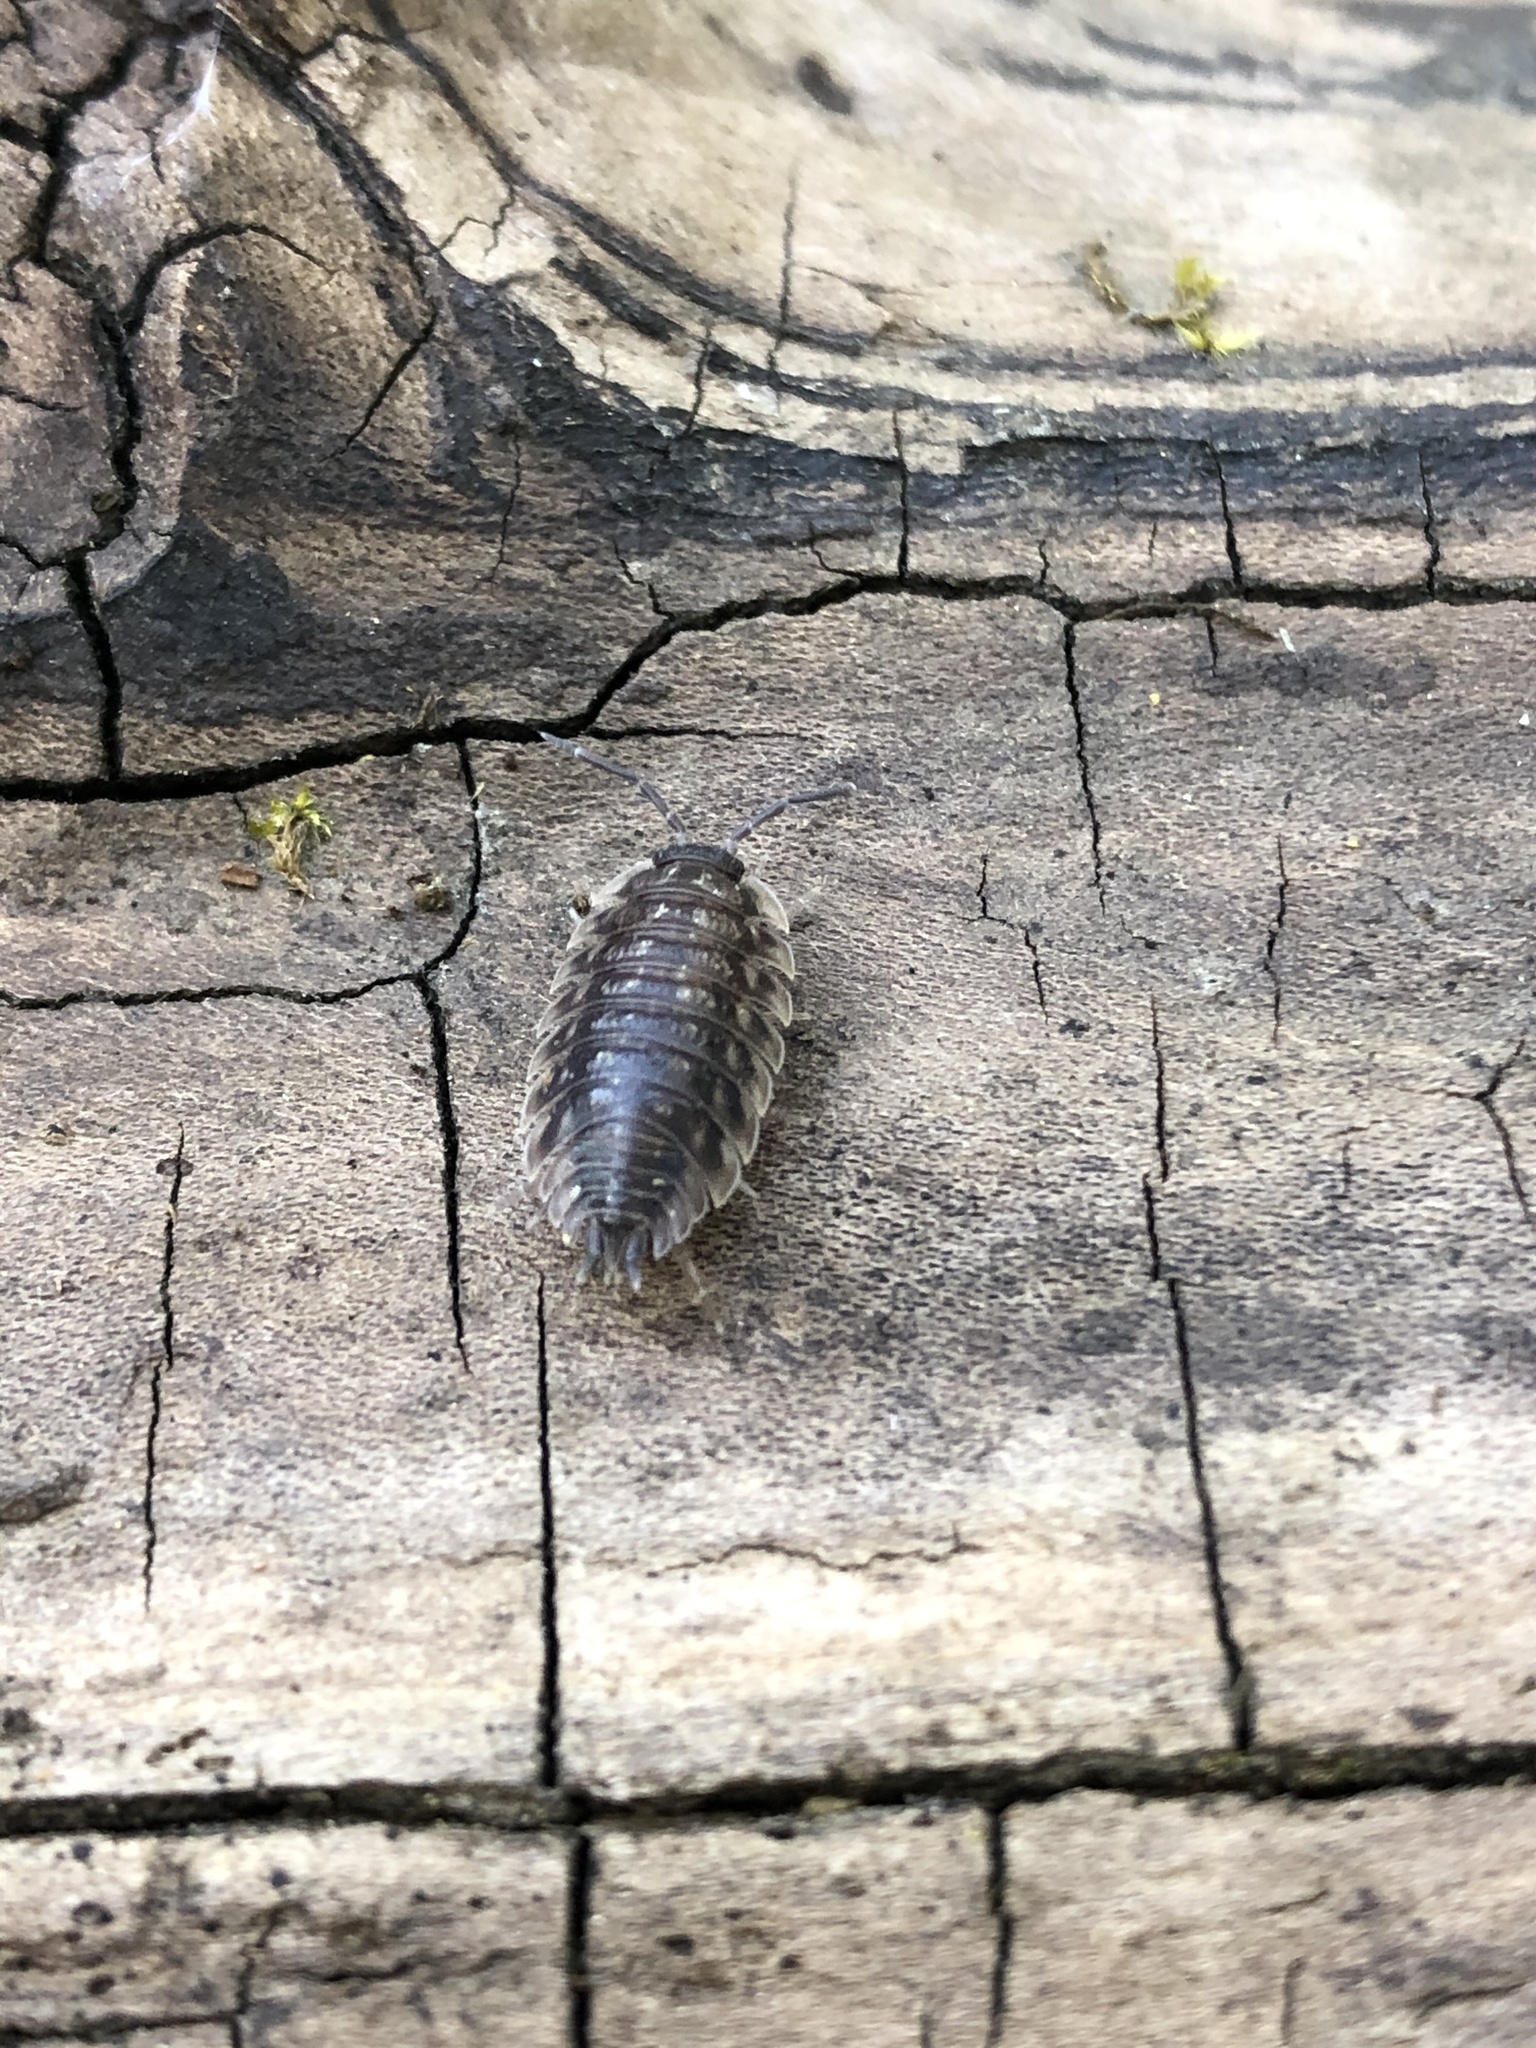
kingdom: Animalia
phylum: Arthropoda
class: Malacostraca
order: Isopoda
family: Oniscidae
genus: Oniscus
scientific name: Oniscus asellus
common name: Common shiny woodlouse
